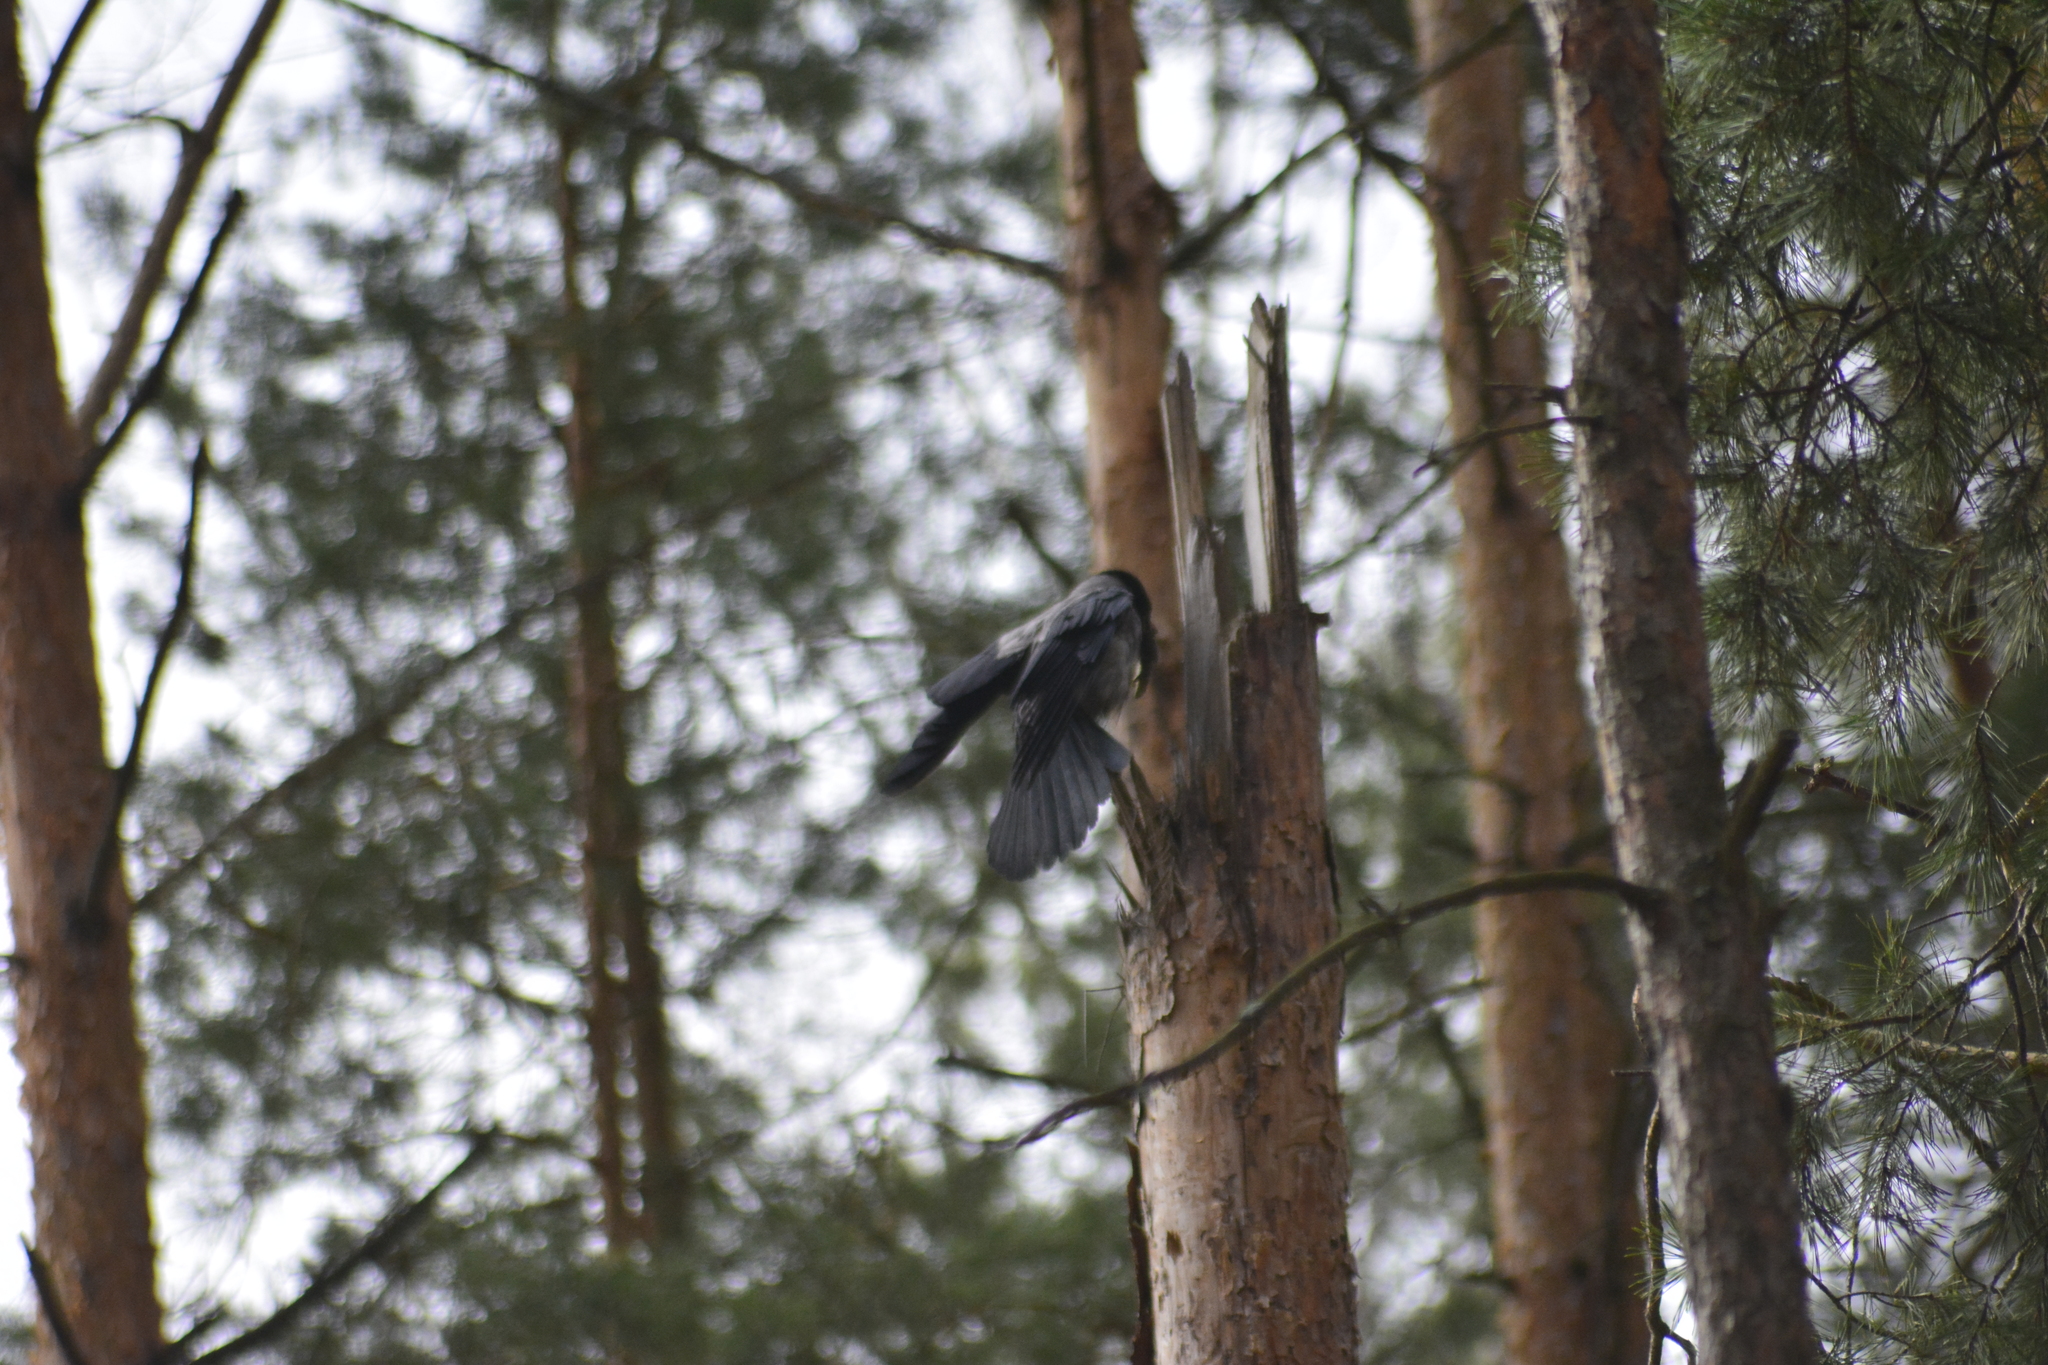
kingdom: Animalia
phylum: Chordata
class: Aves
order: Passeriformes
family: Corvidae
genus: Corvus
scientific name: Corvus cornix
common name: Hooded crow
